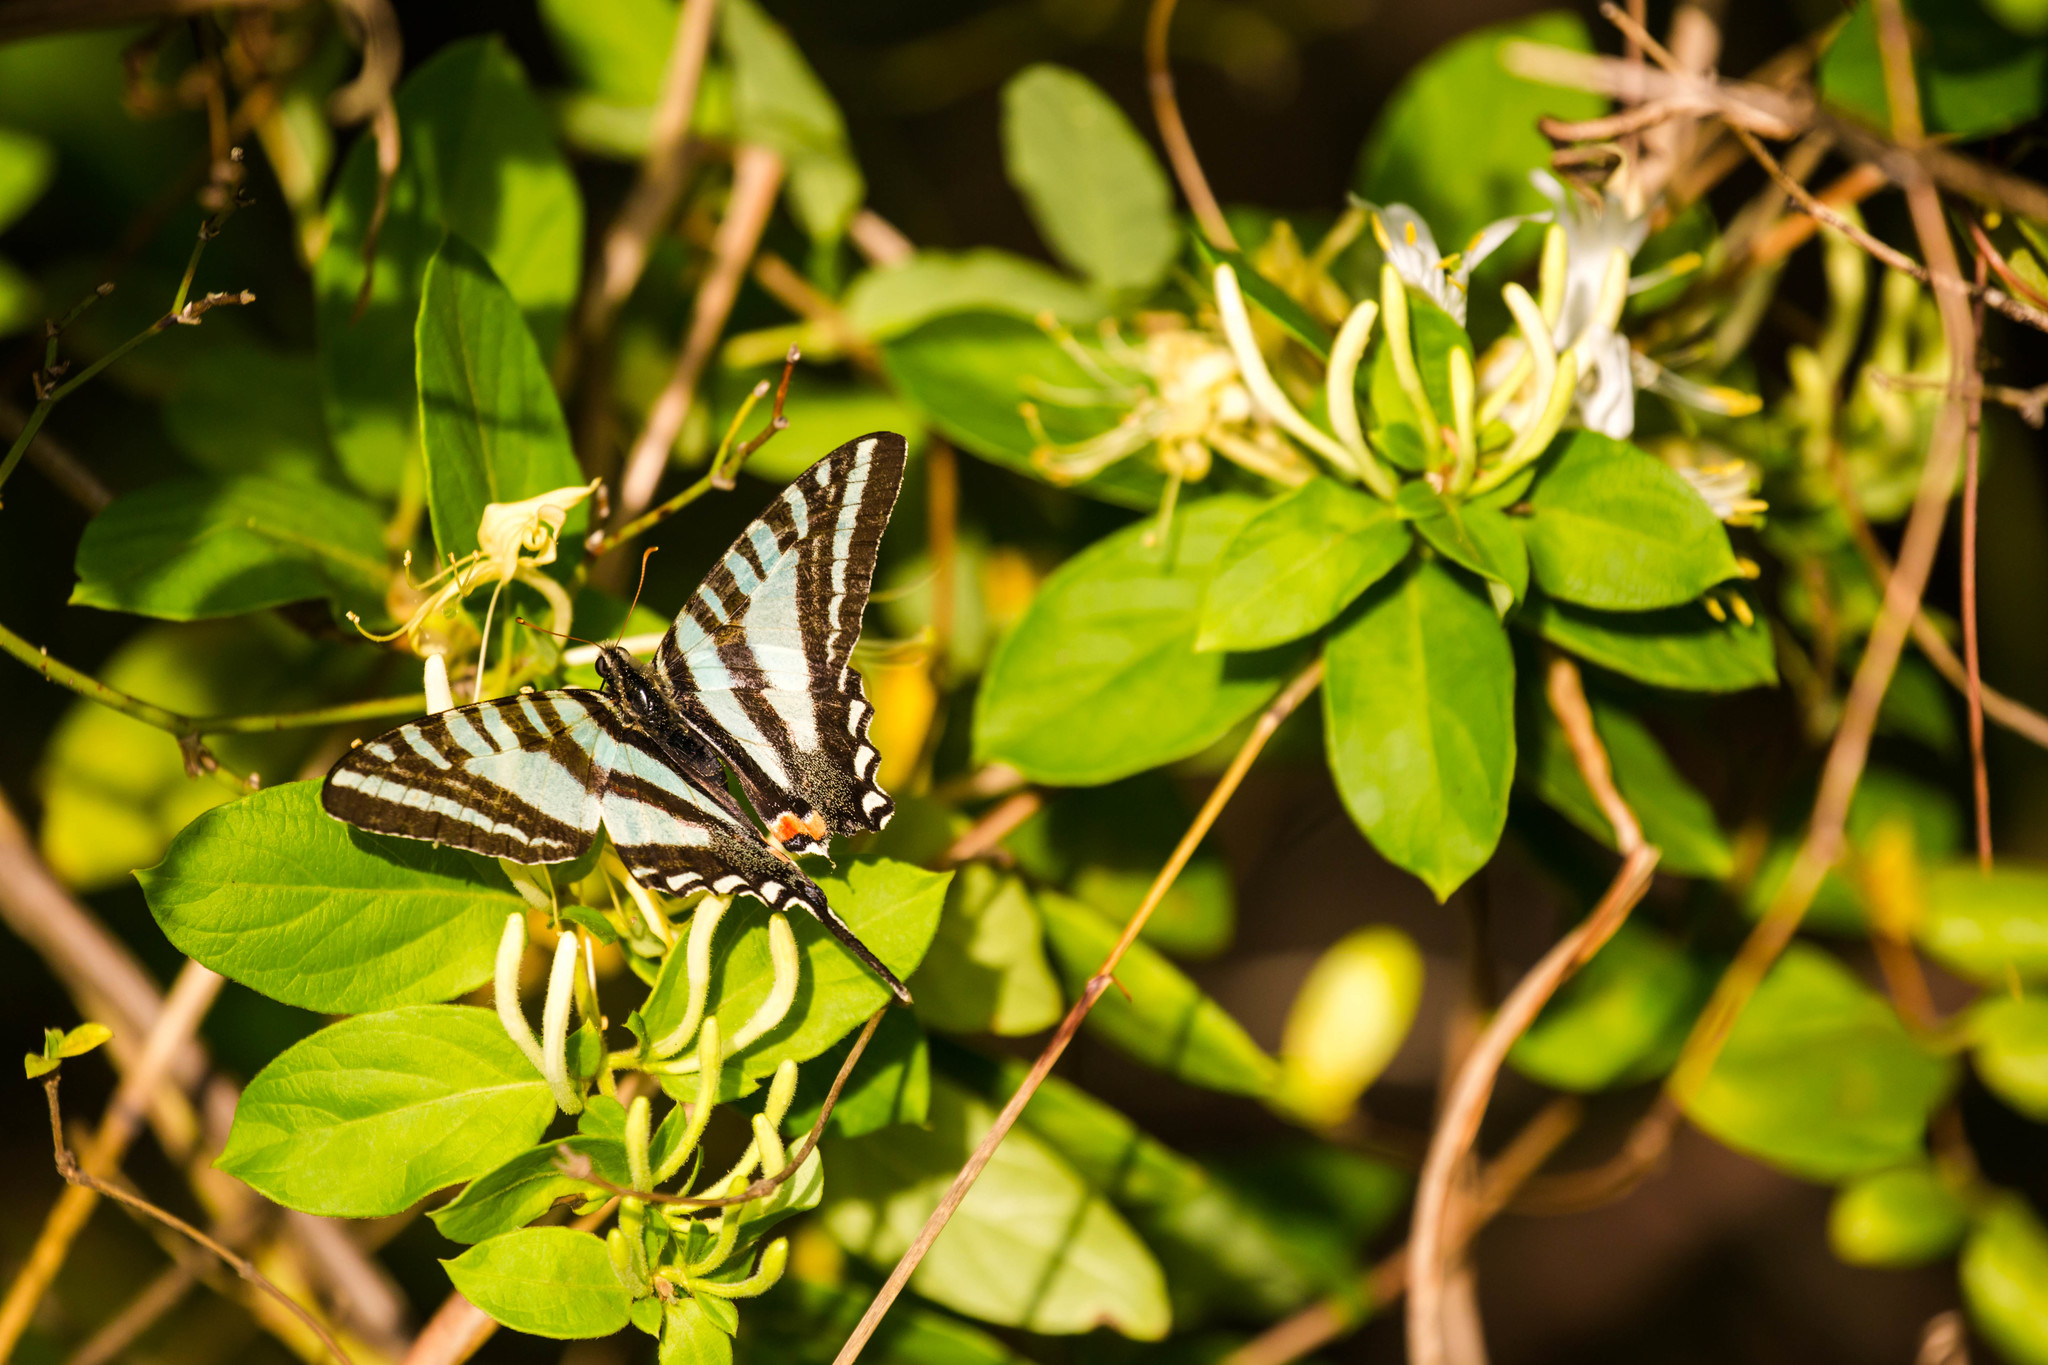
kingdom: Animalia
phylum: Arthropoda
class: Insecta
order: Lepidoptera
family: Papilionidae
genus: Protographium
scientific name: Protographium marcellus
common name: Zebra swallowtail
